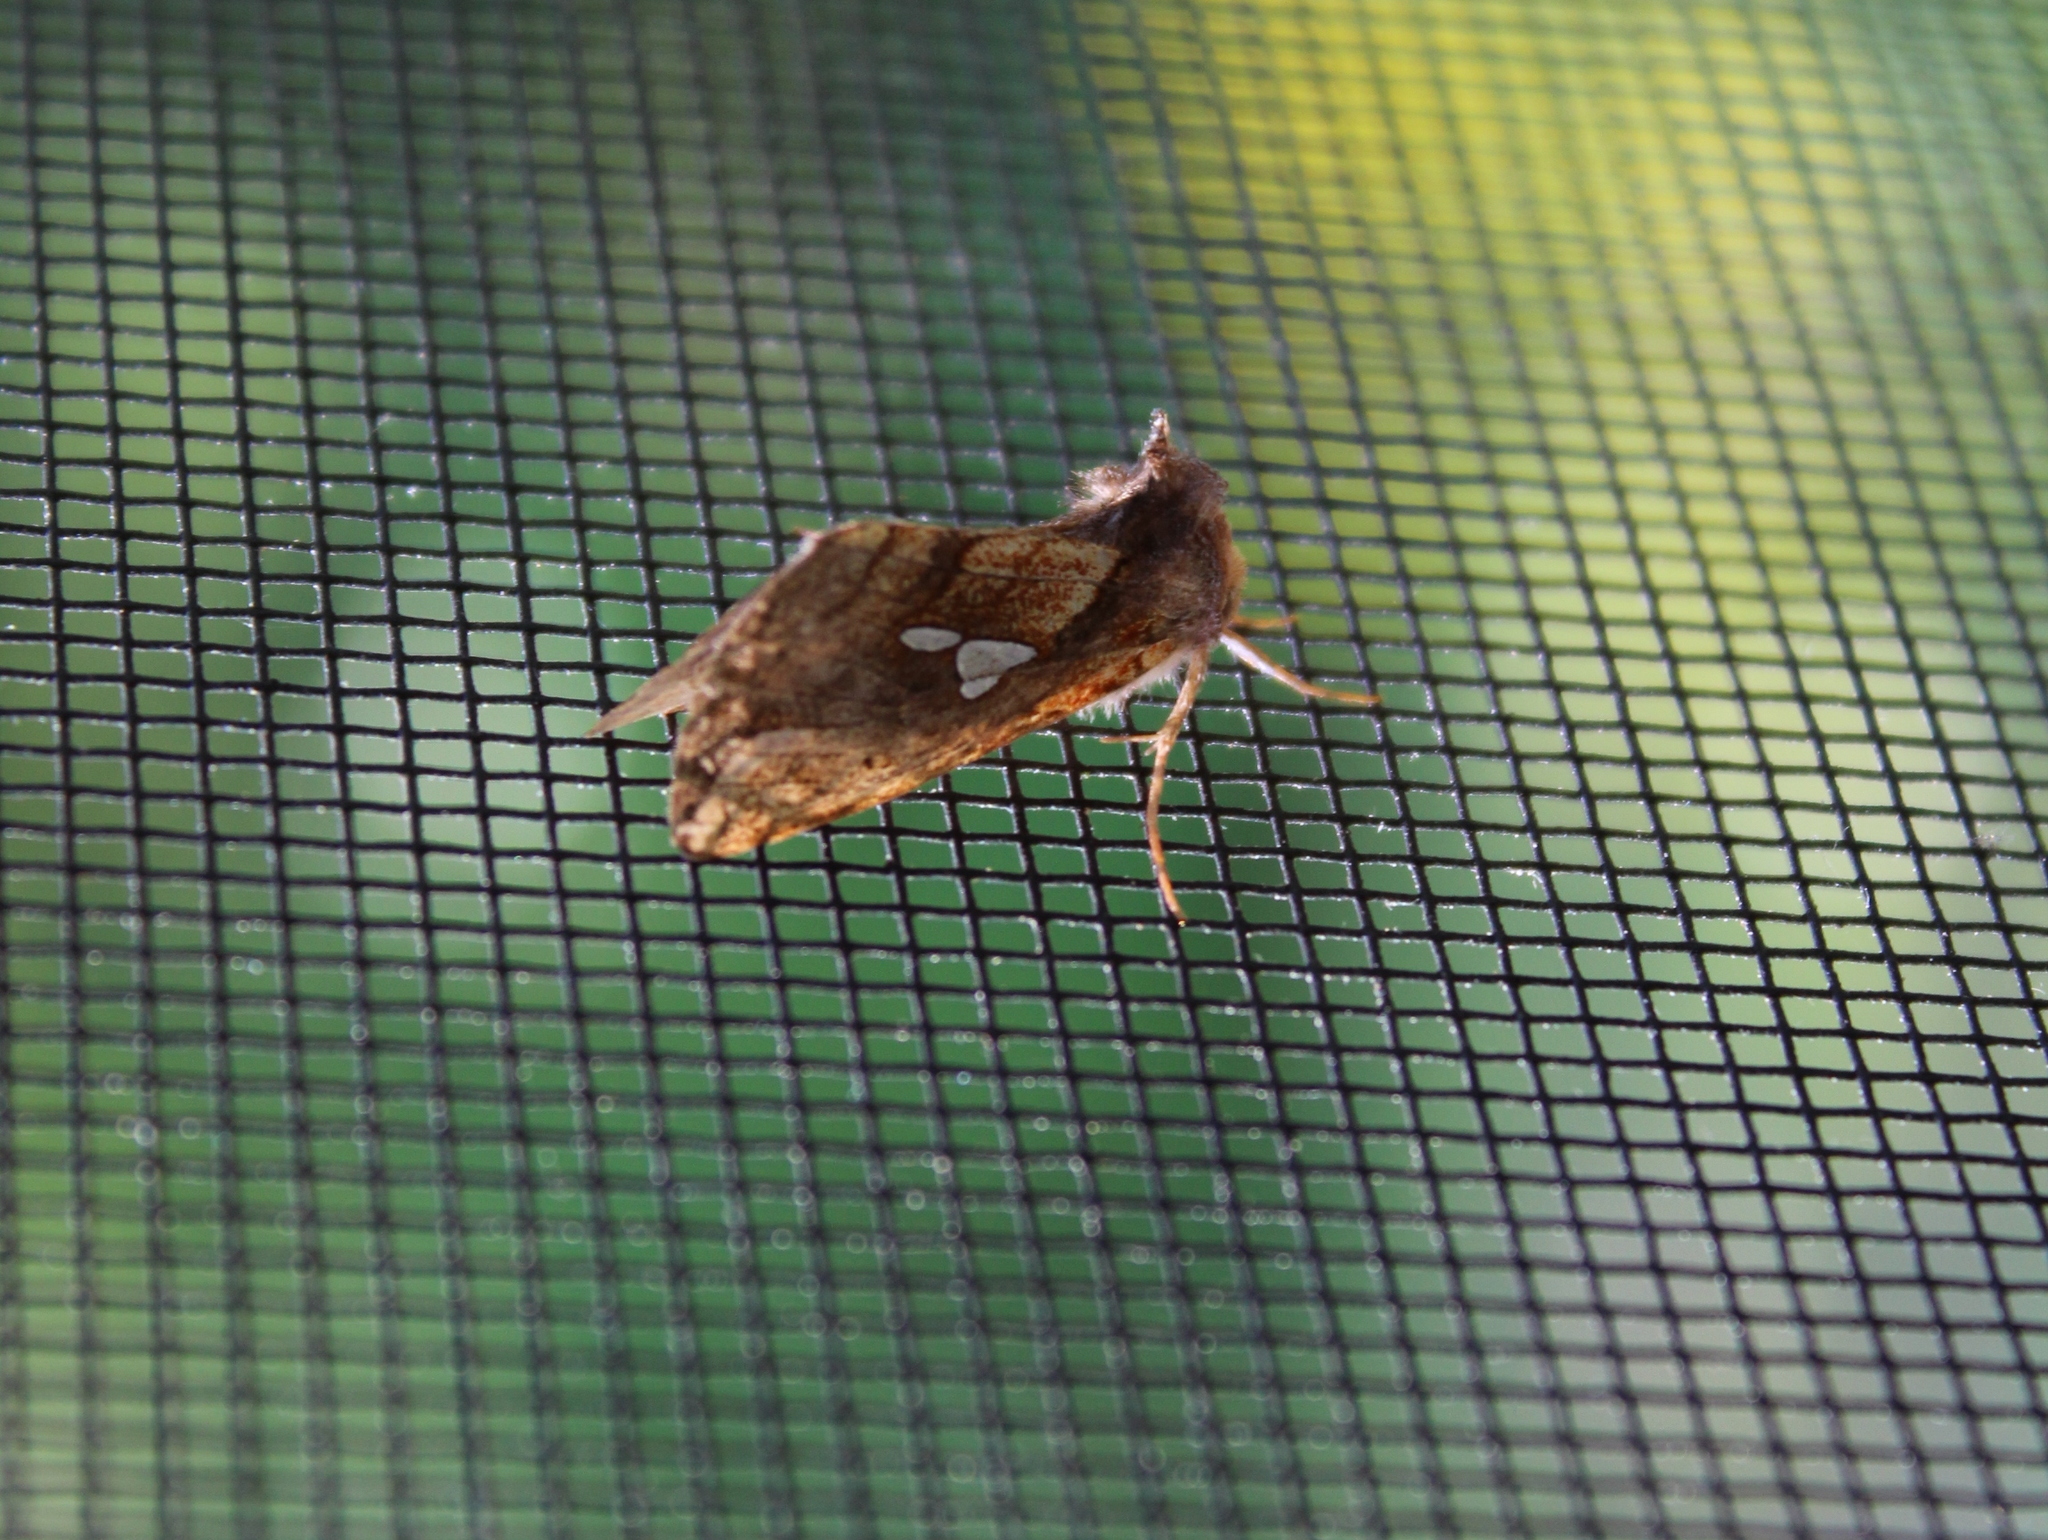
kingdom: Animalia
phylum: Arthropoda
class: Insecta
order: Lepidoptera
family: Noctuidae
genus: Plusia
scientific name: Plusia putnami
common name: Lempke's gold spot
